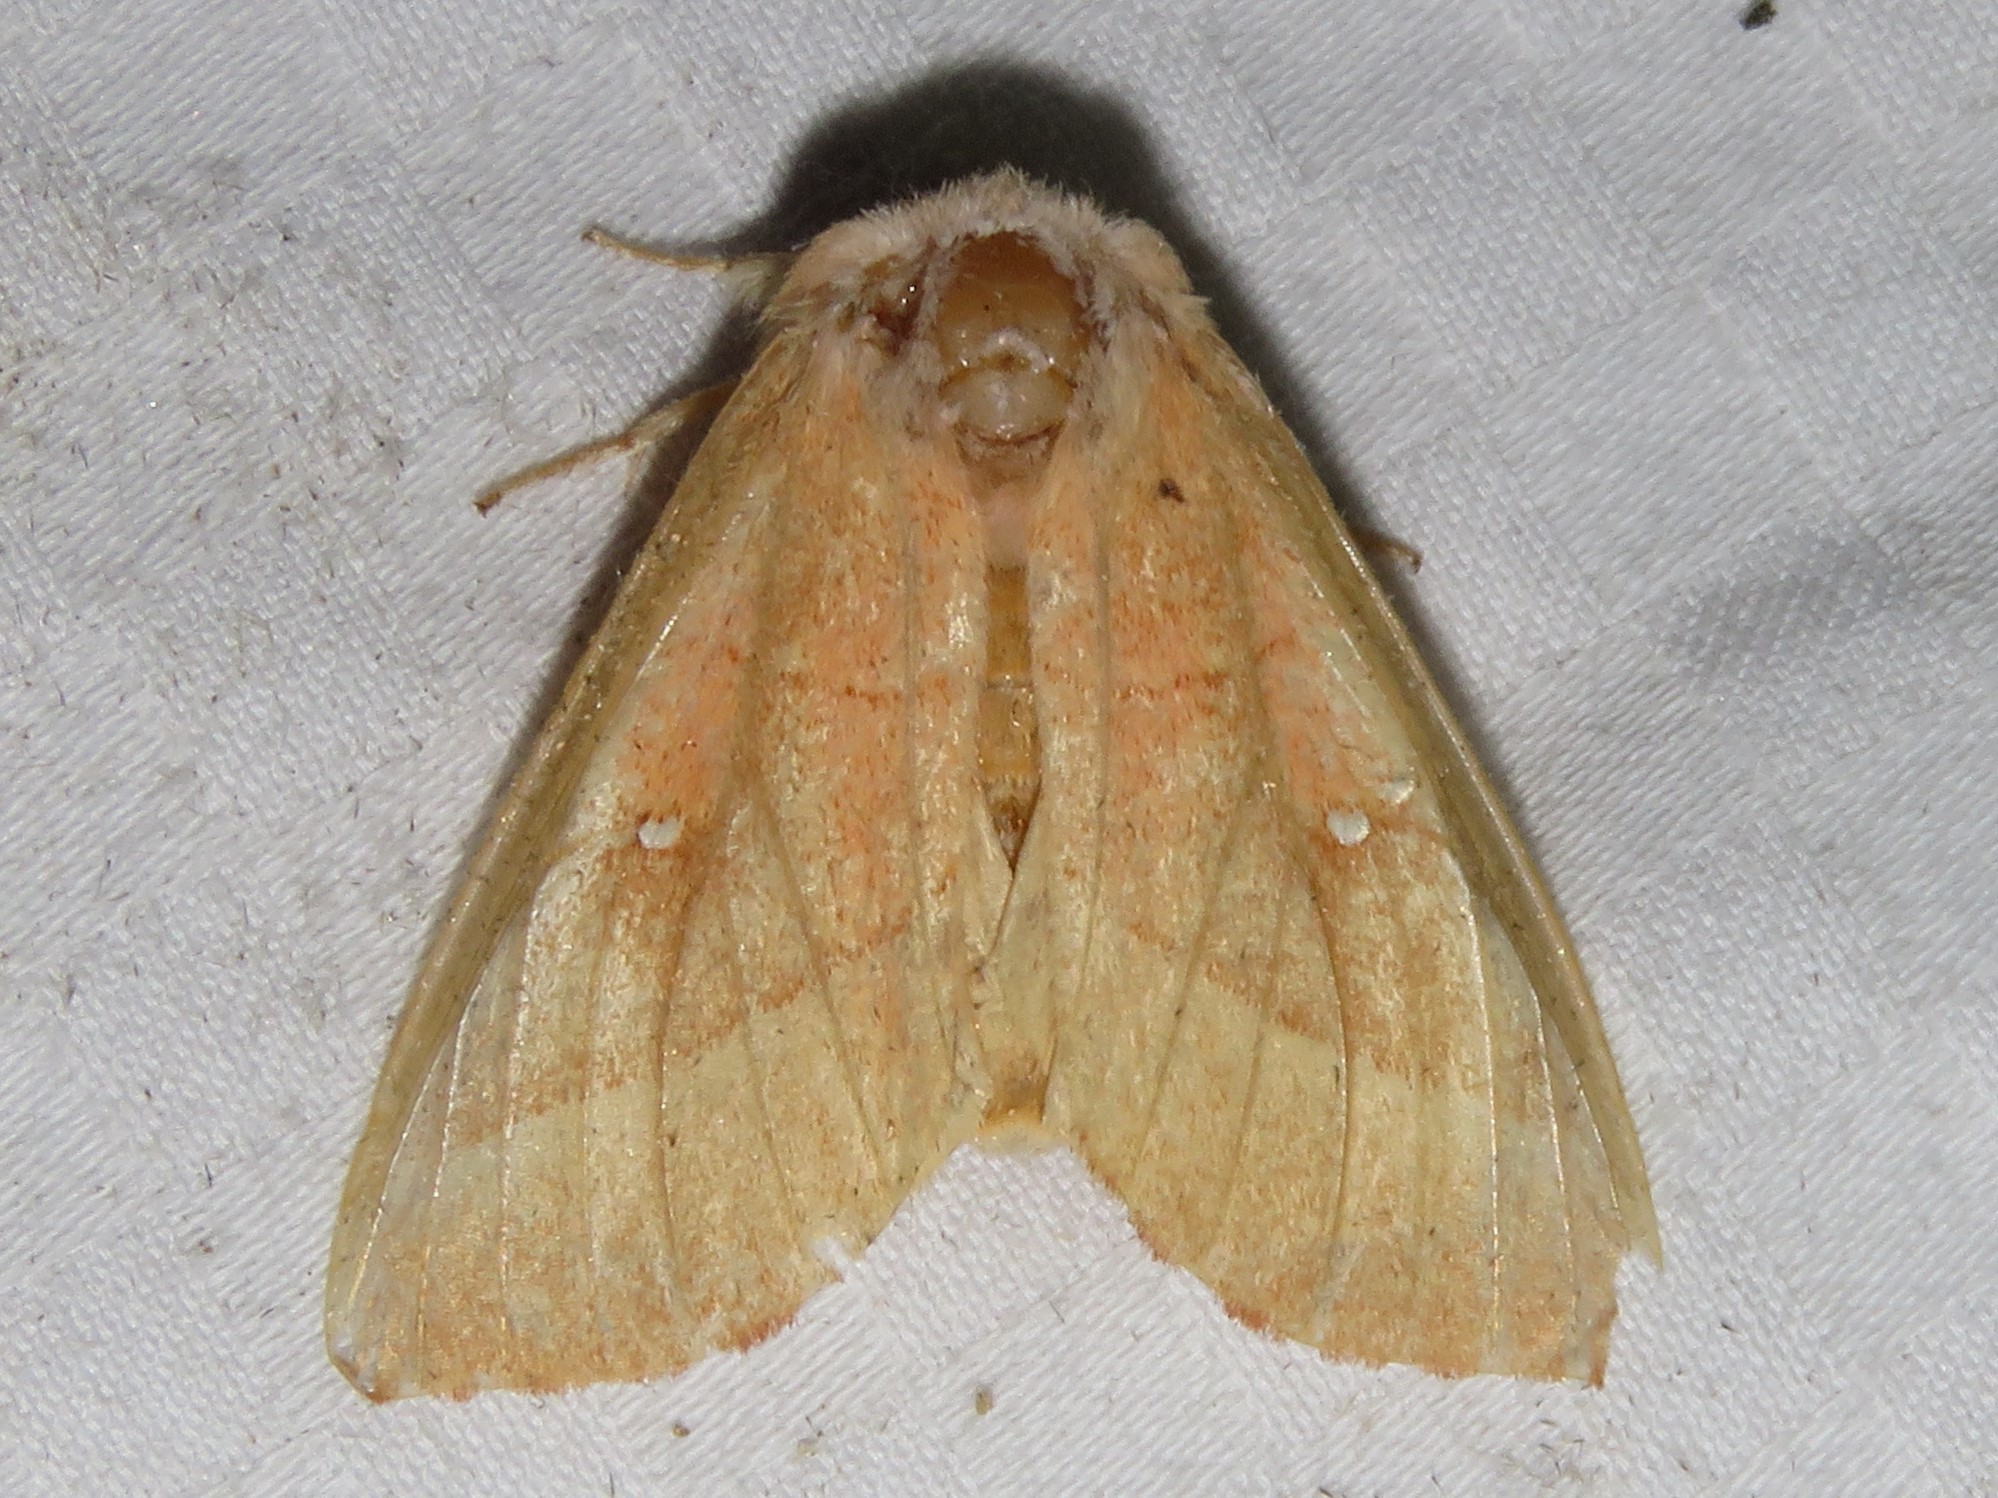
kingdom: Animalia
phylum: Arthropoda
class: Insecta
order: Lepidoptera
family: Notodontidae
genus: Nadata
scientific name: Nadata gibbosa
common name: White-dotted prominent
